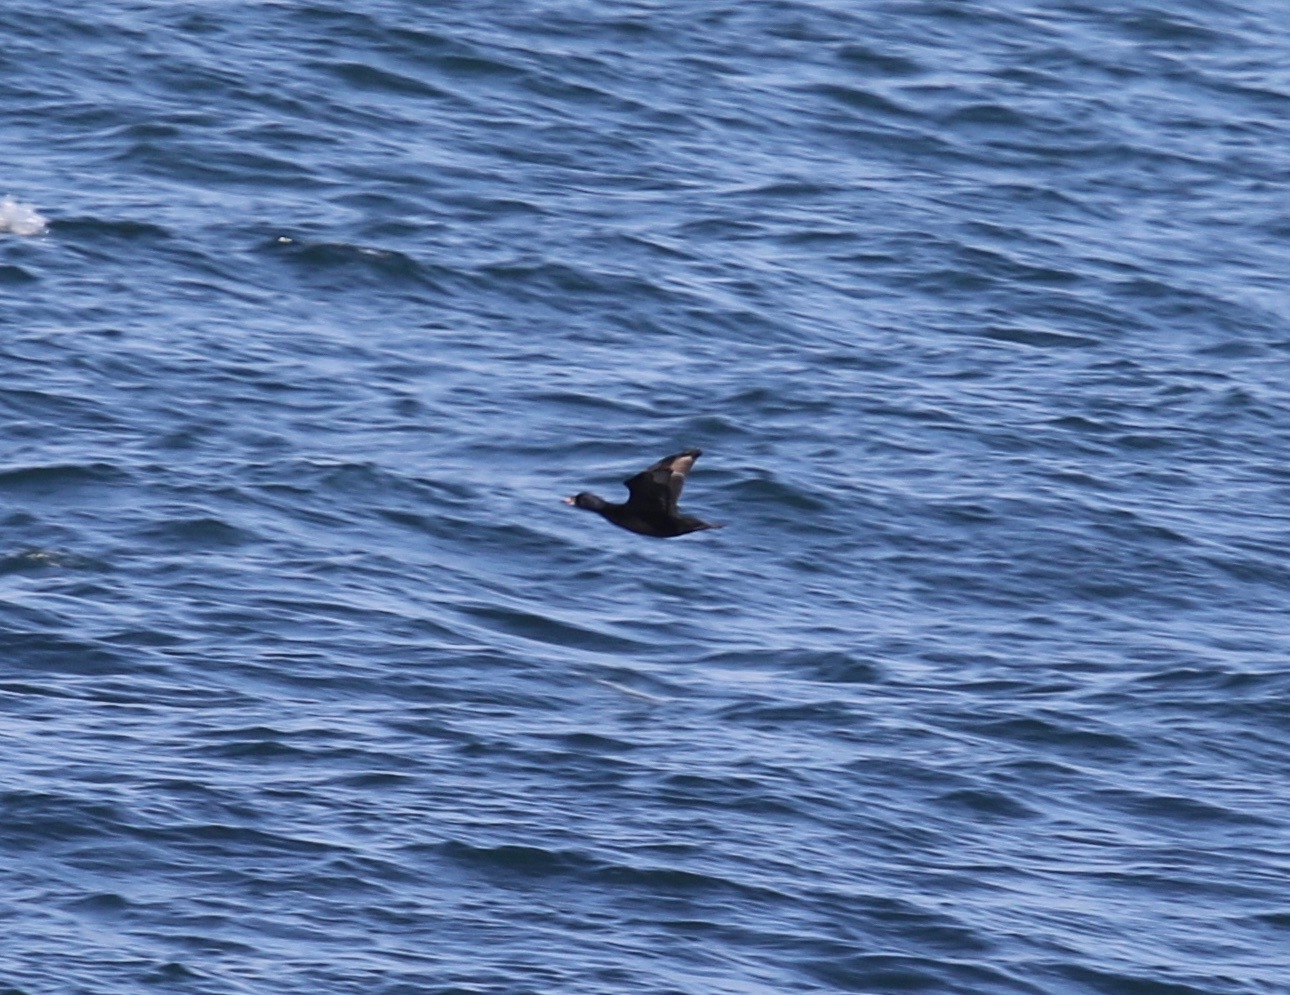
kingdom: Animalia
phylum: Chordata
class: Aves
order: Anseriformes
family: Anatidae
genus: Melanitta
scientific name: Melanitta nigra
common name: Common scoter
